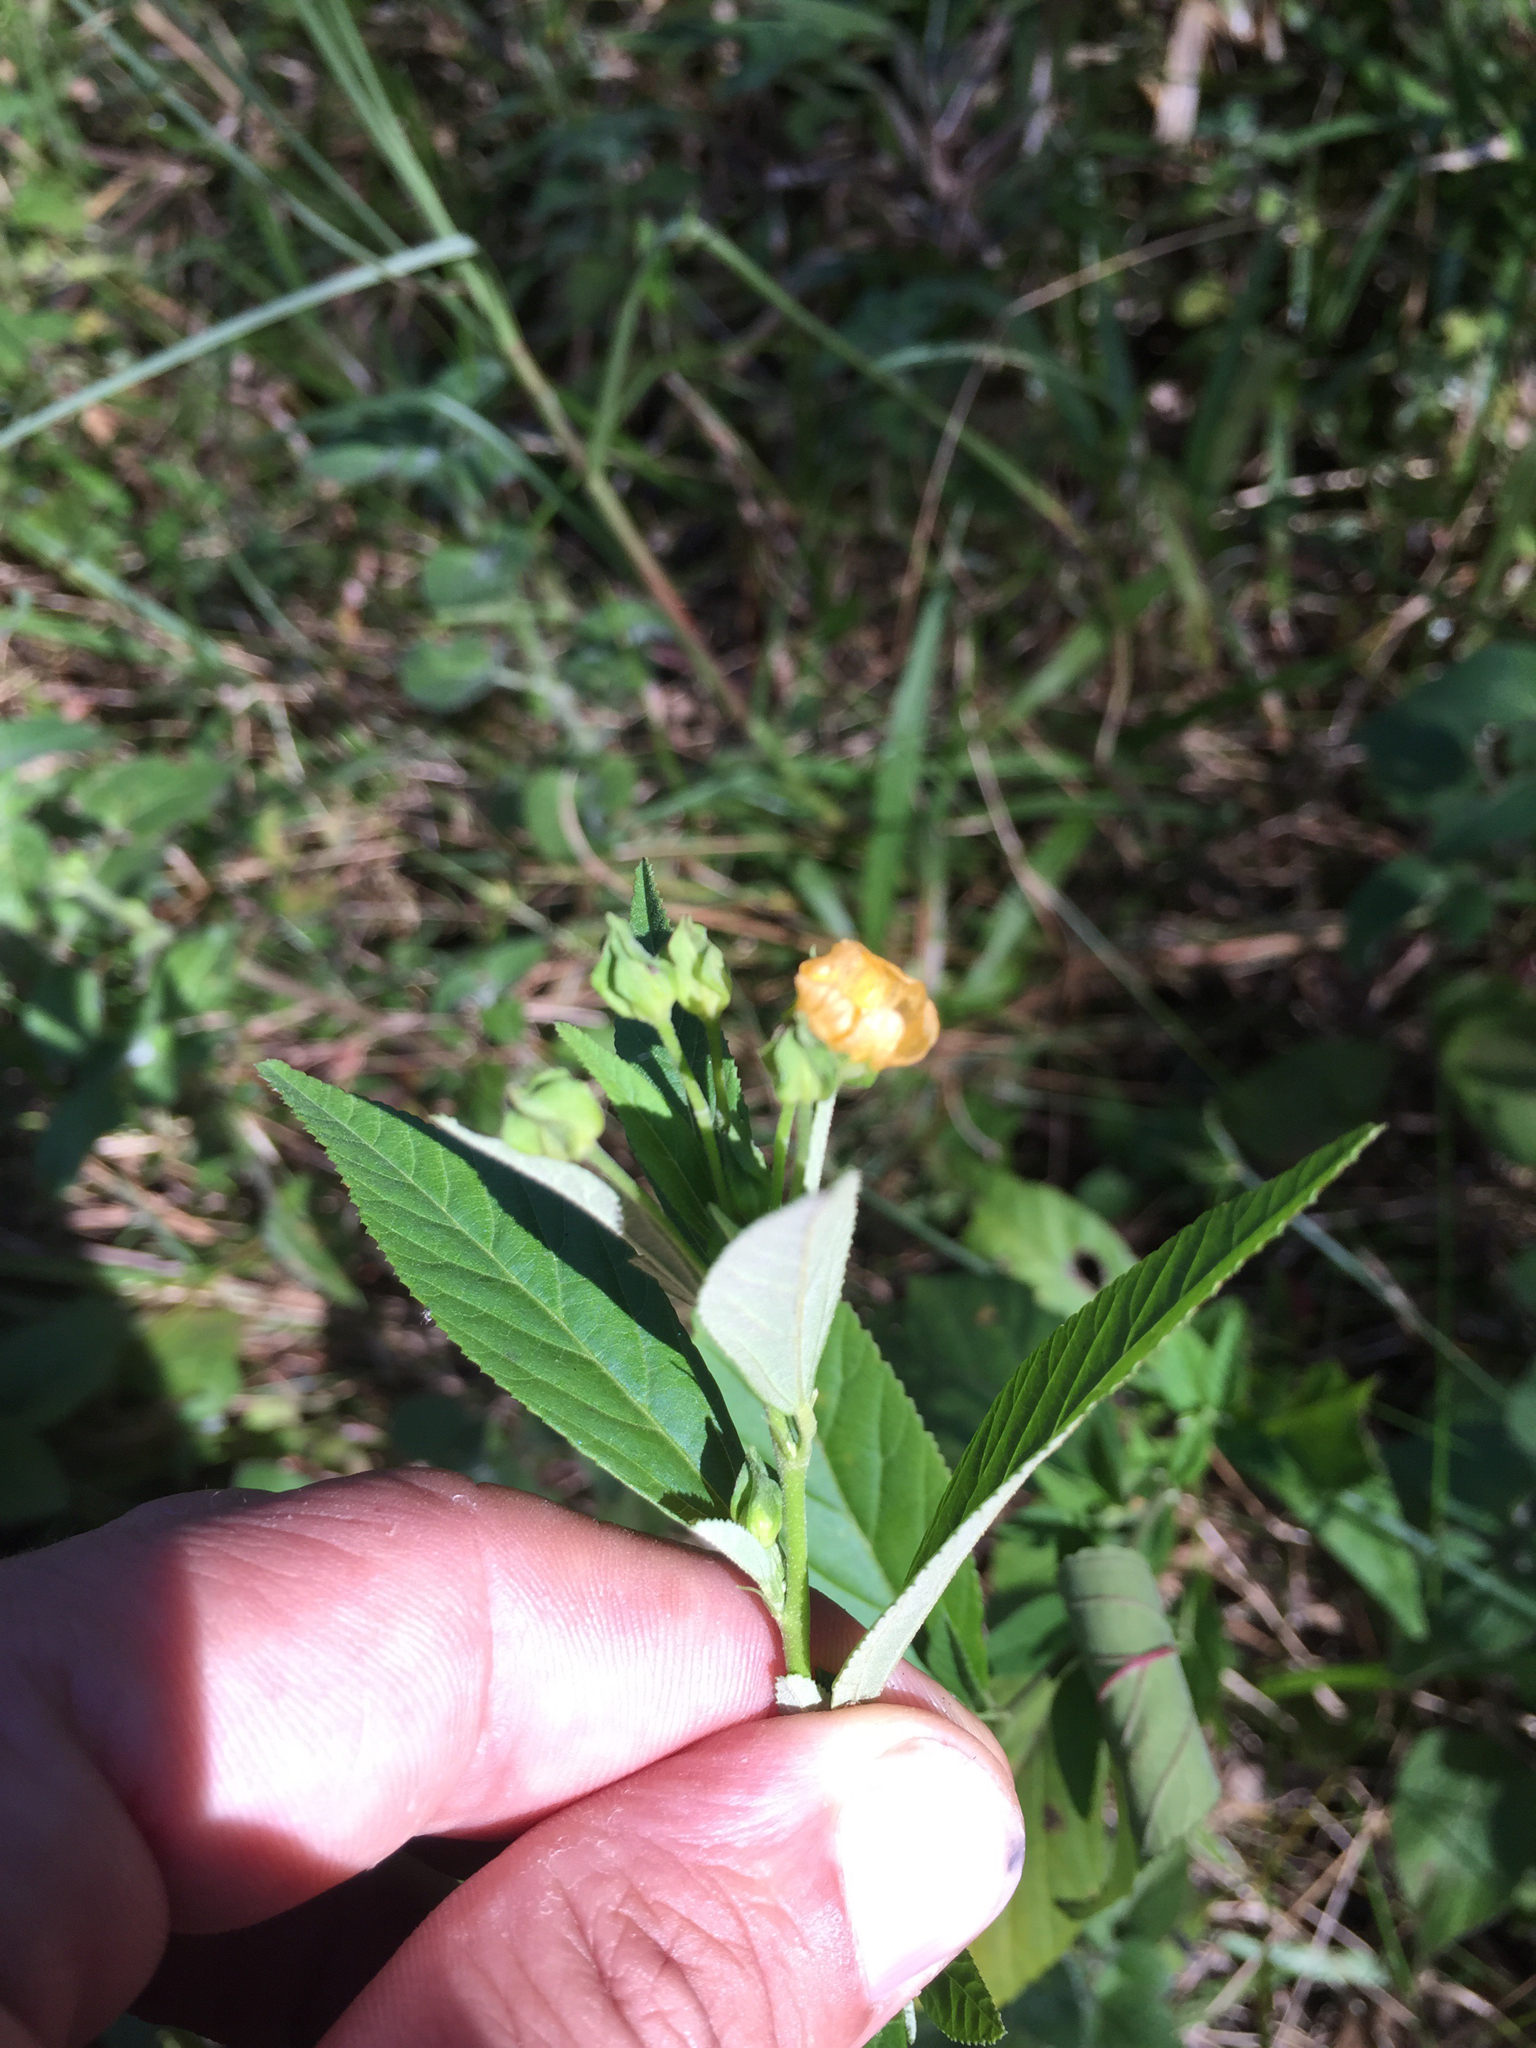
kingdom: Plantae
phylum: Tracheophyta
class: Magnoliopsida
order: Malvales
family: Malvaceae
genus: Sida
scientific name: Sida rhombifolia
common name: Queensland-hemp
